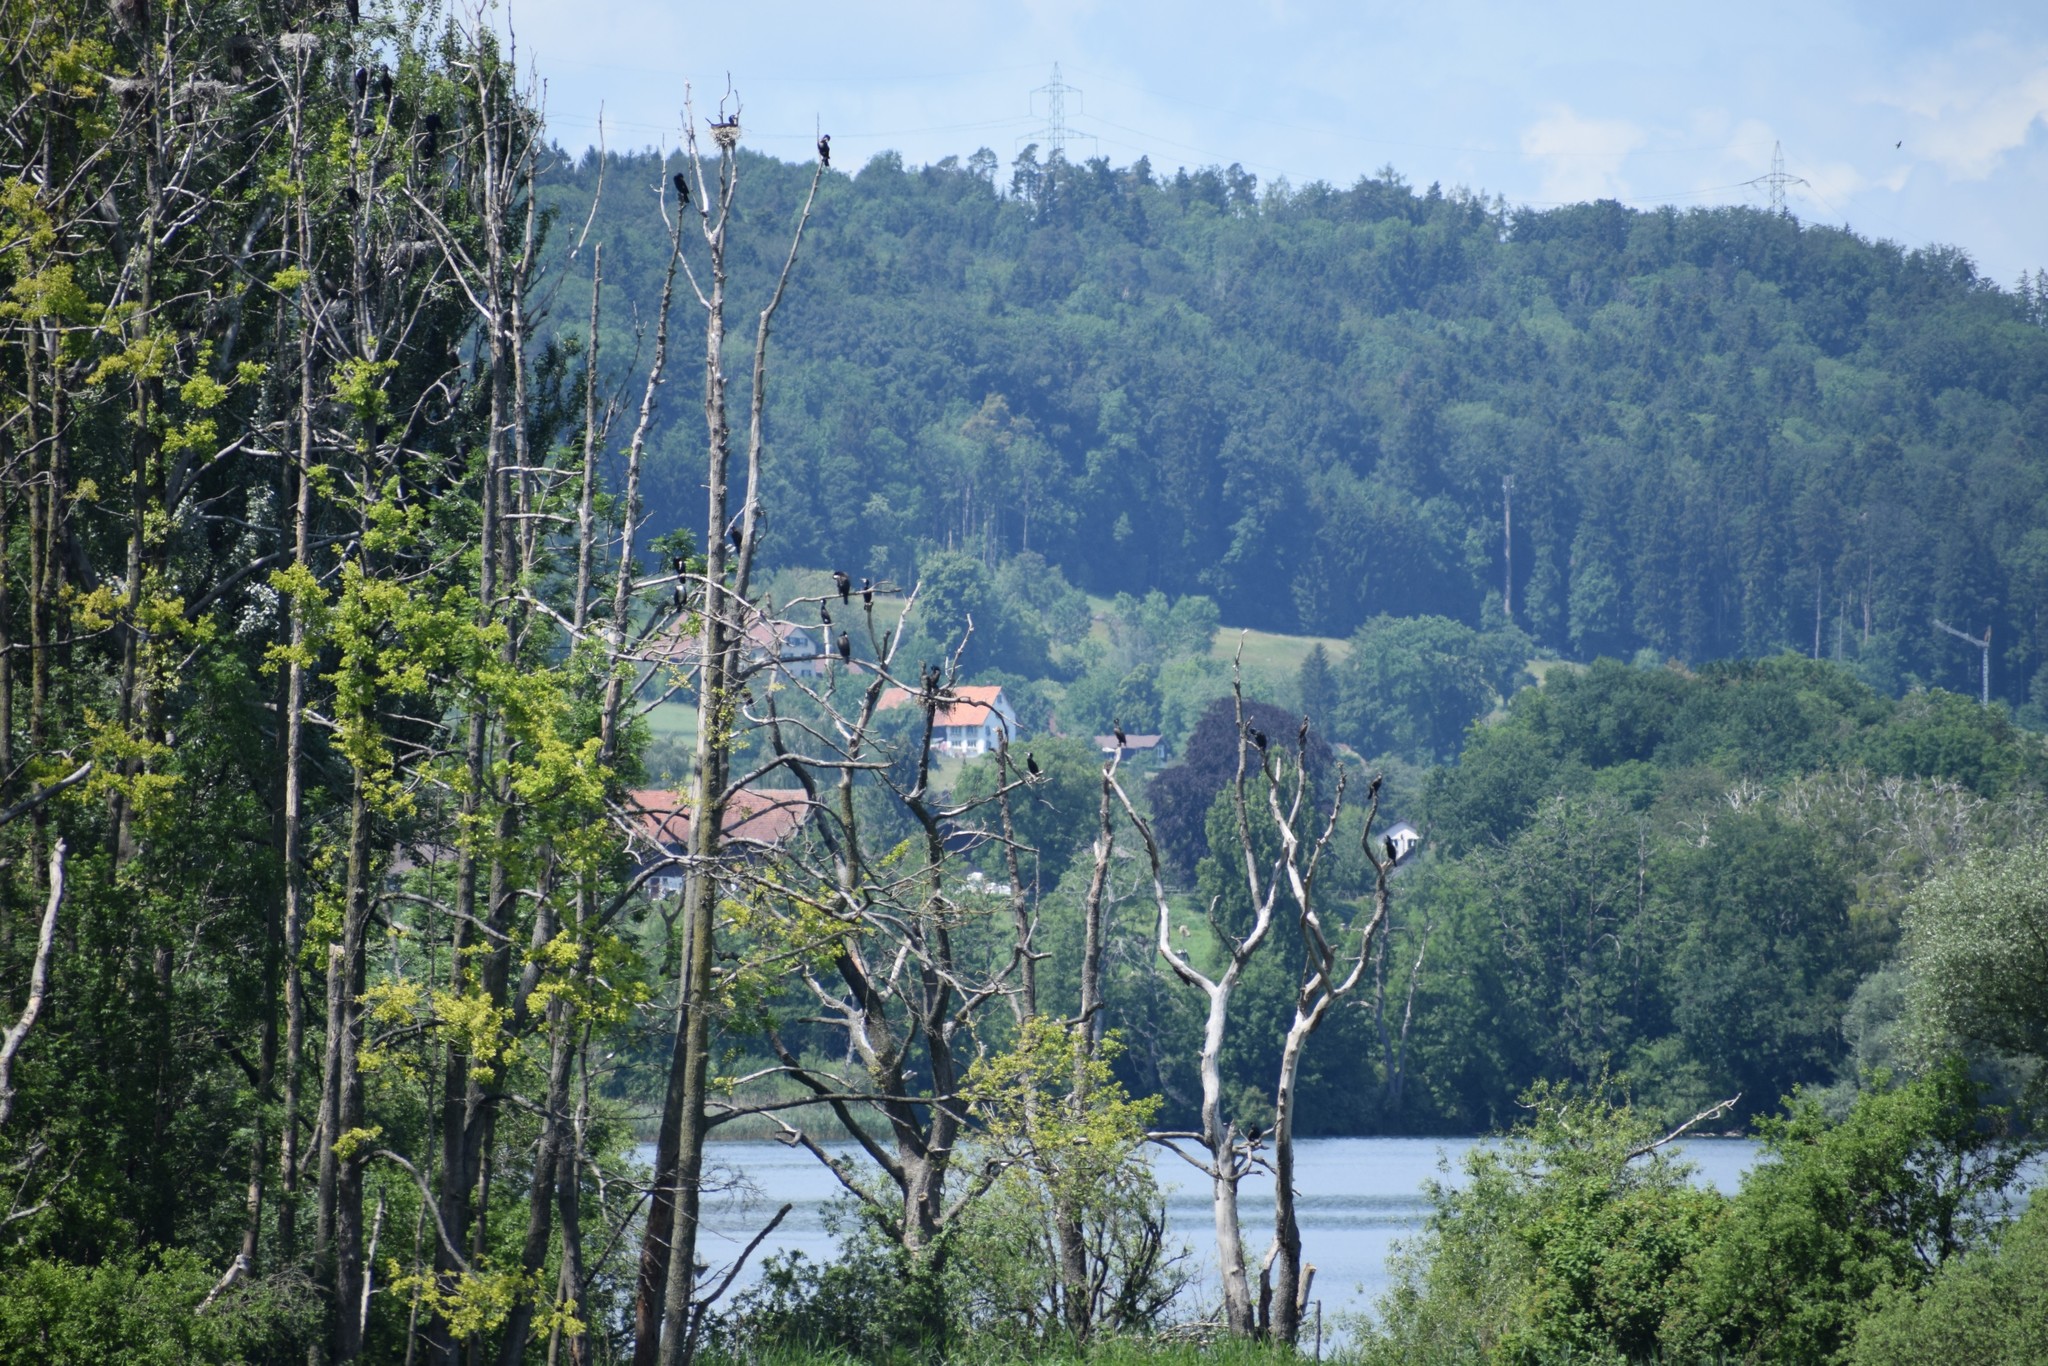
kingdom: Animalia
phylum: Chordata
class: Aves
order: Suliformes
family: Phalacrocoracidae
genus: Phalacrocorax
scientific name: Phalacrocorax carbo
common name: Great cormorant
